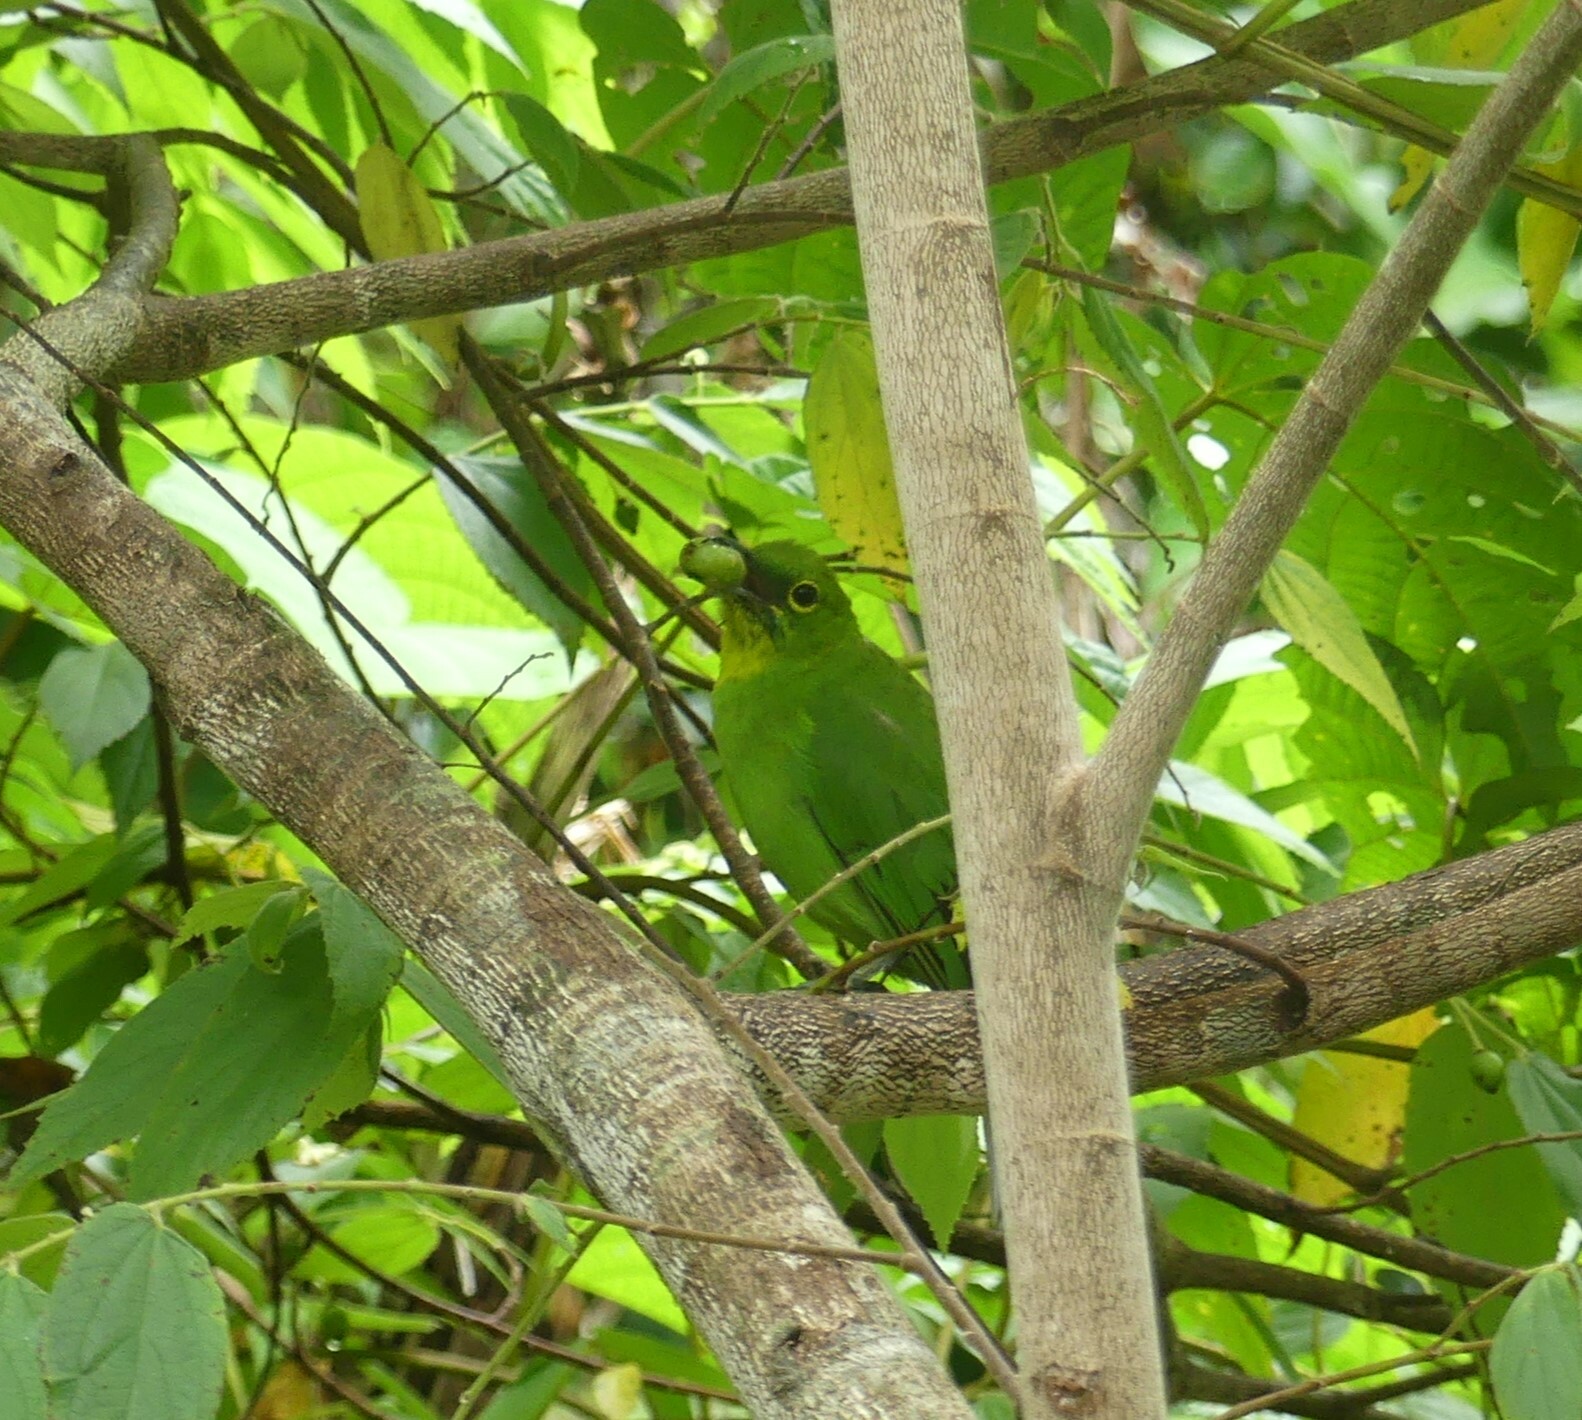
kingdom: Animalia
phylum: Chordata
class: Aves
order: Passeriformes
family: Chloropseidae
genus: Chloropsis
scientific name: Chloropsis sonnerati
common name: Greater green leafbird
